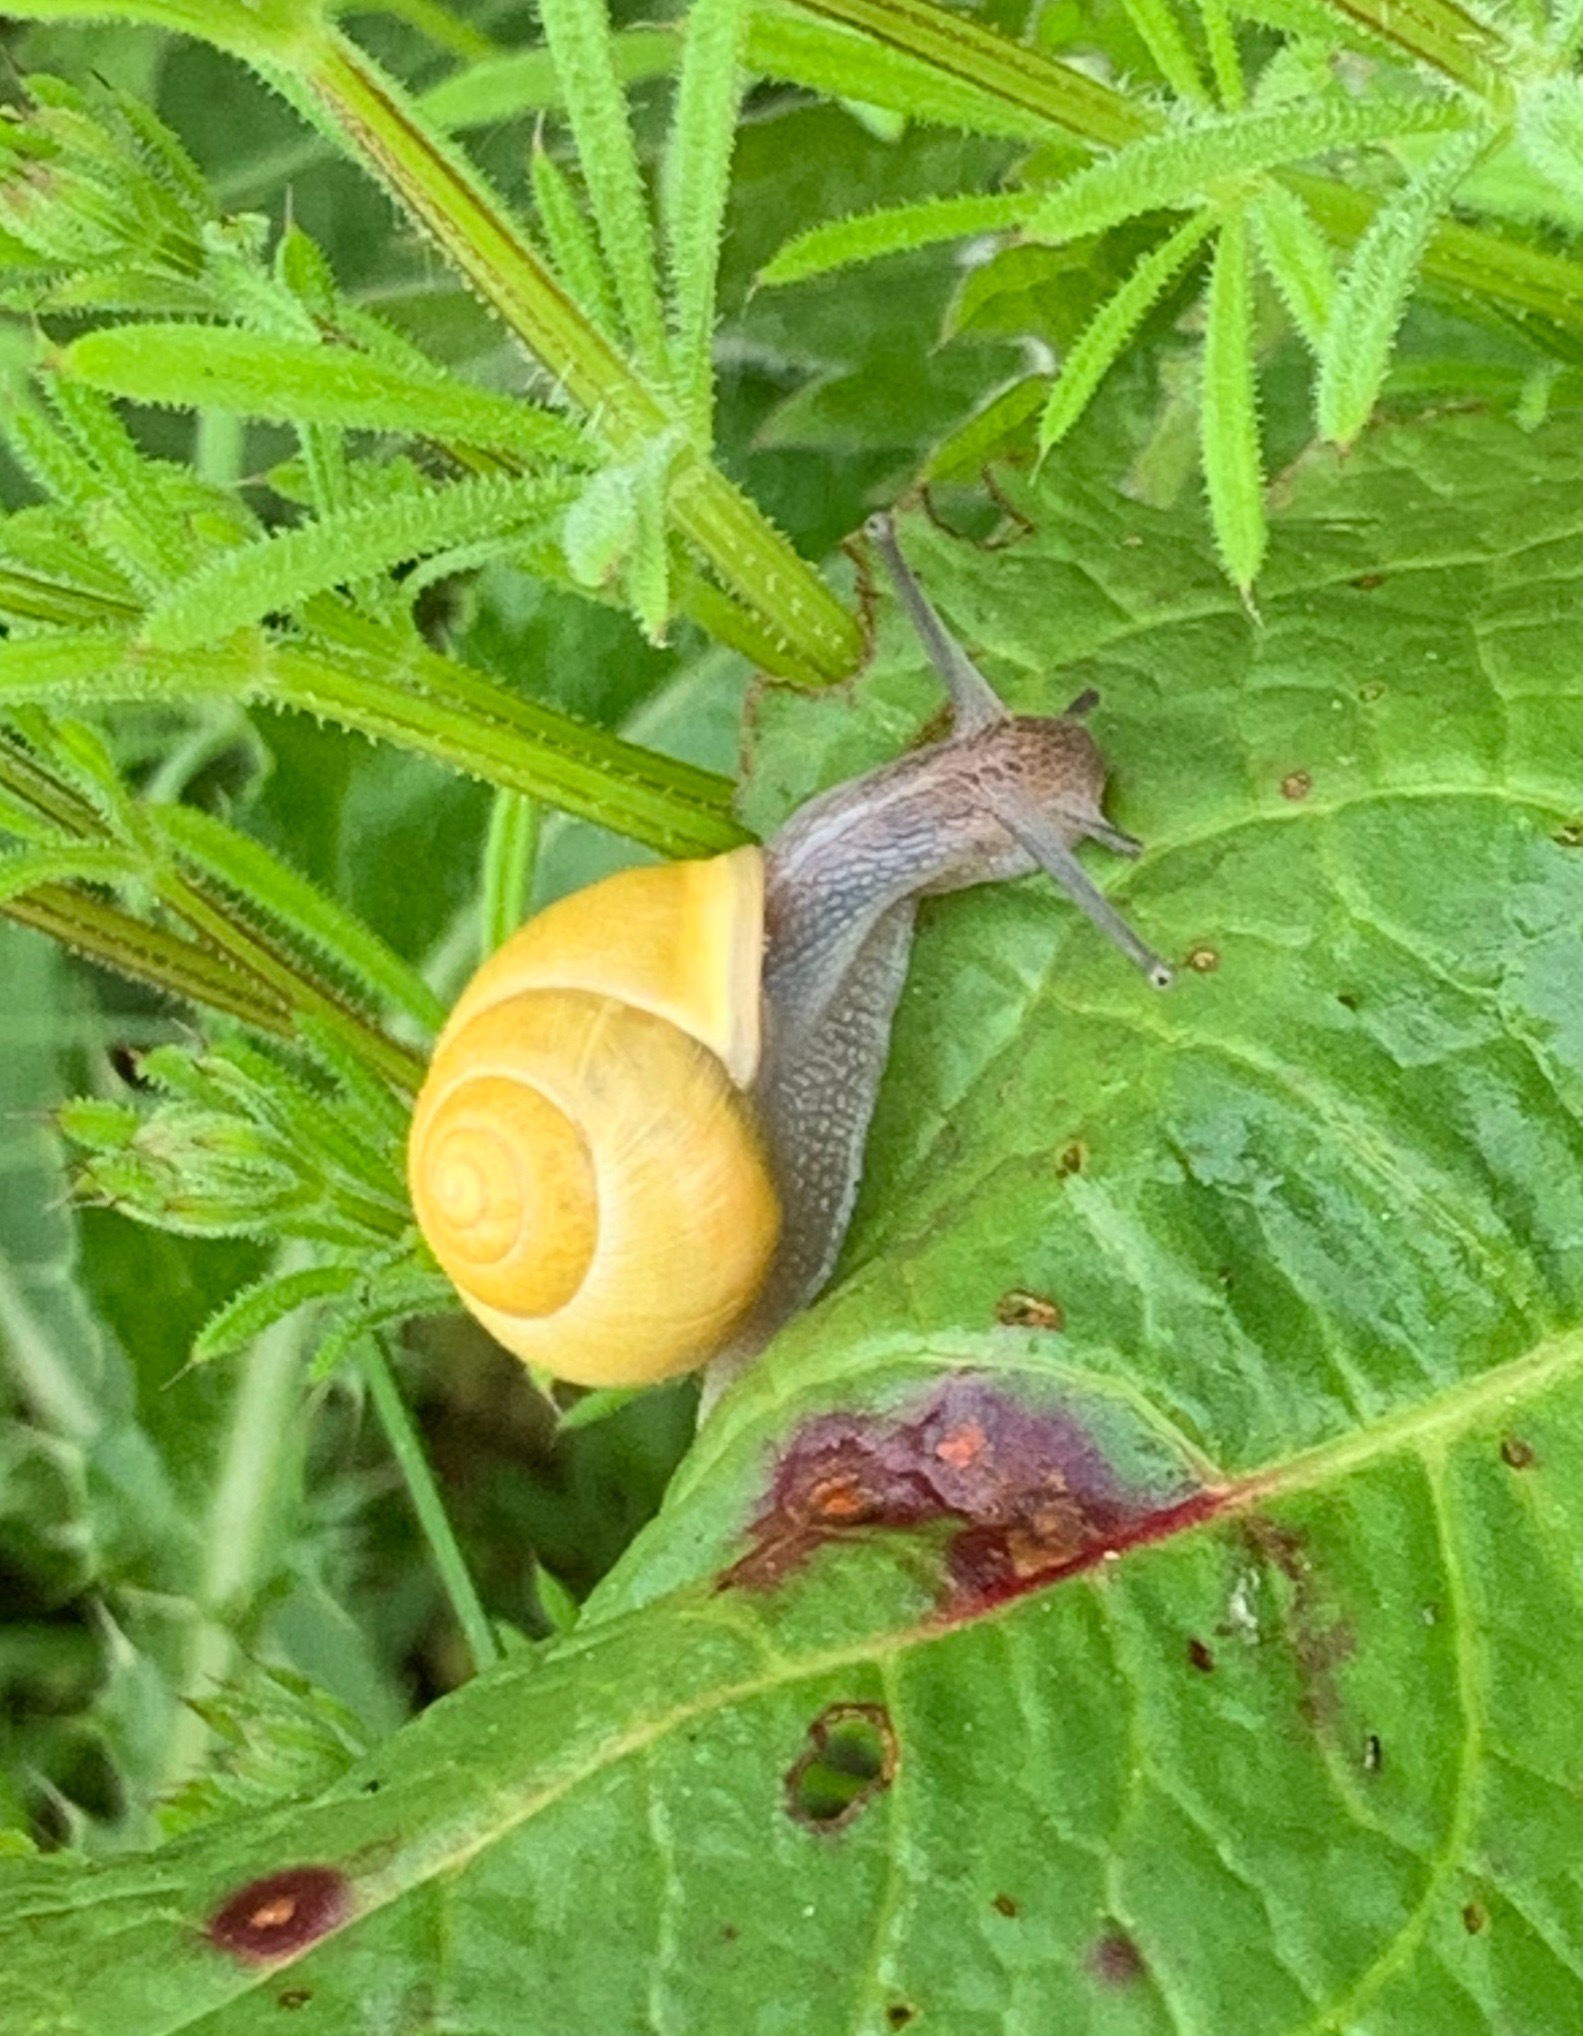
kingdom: Animalia
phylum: Mollusca
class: Gastropoda
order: Stylommatophora
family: Helicidae
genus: Cepaea
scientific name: Cepaea hortensis
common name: White-lip gardensnail
